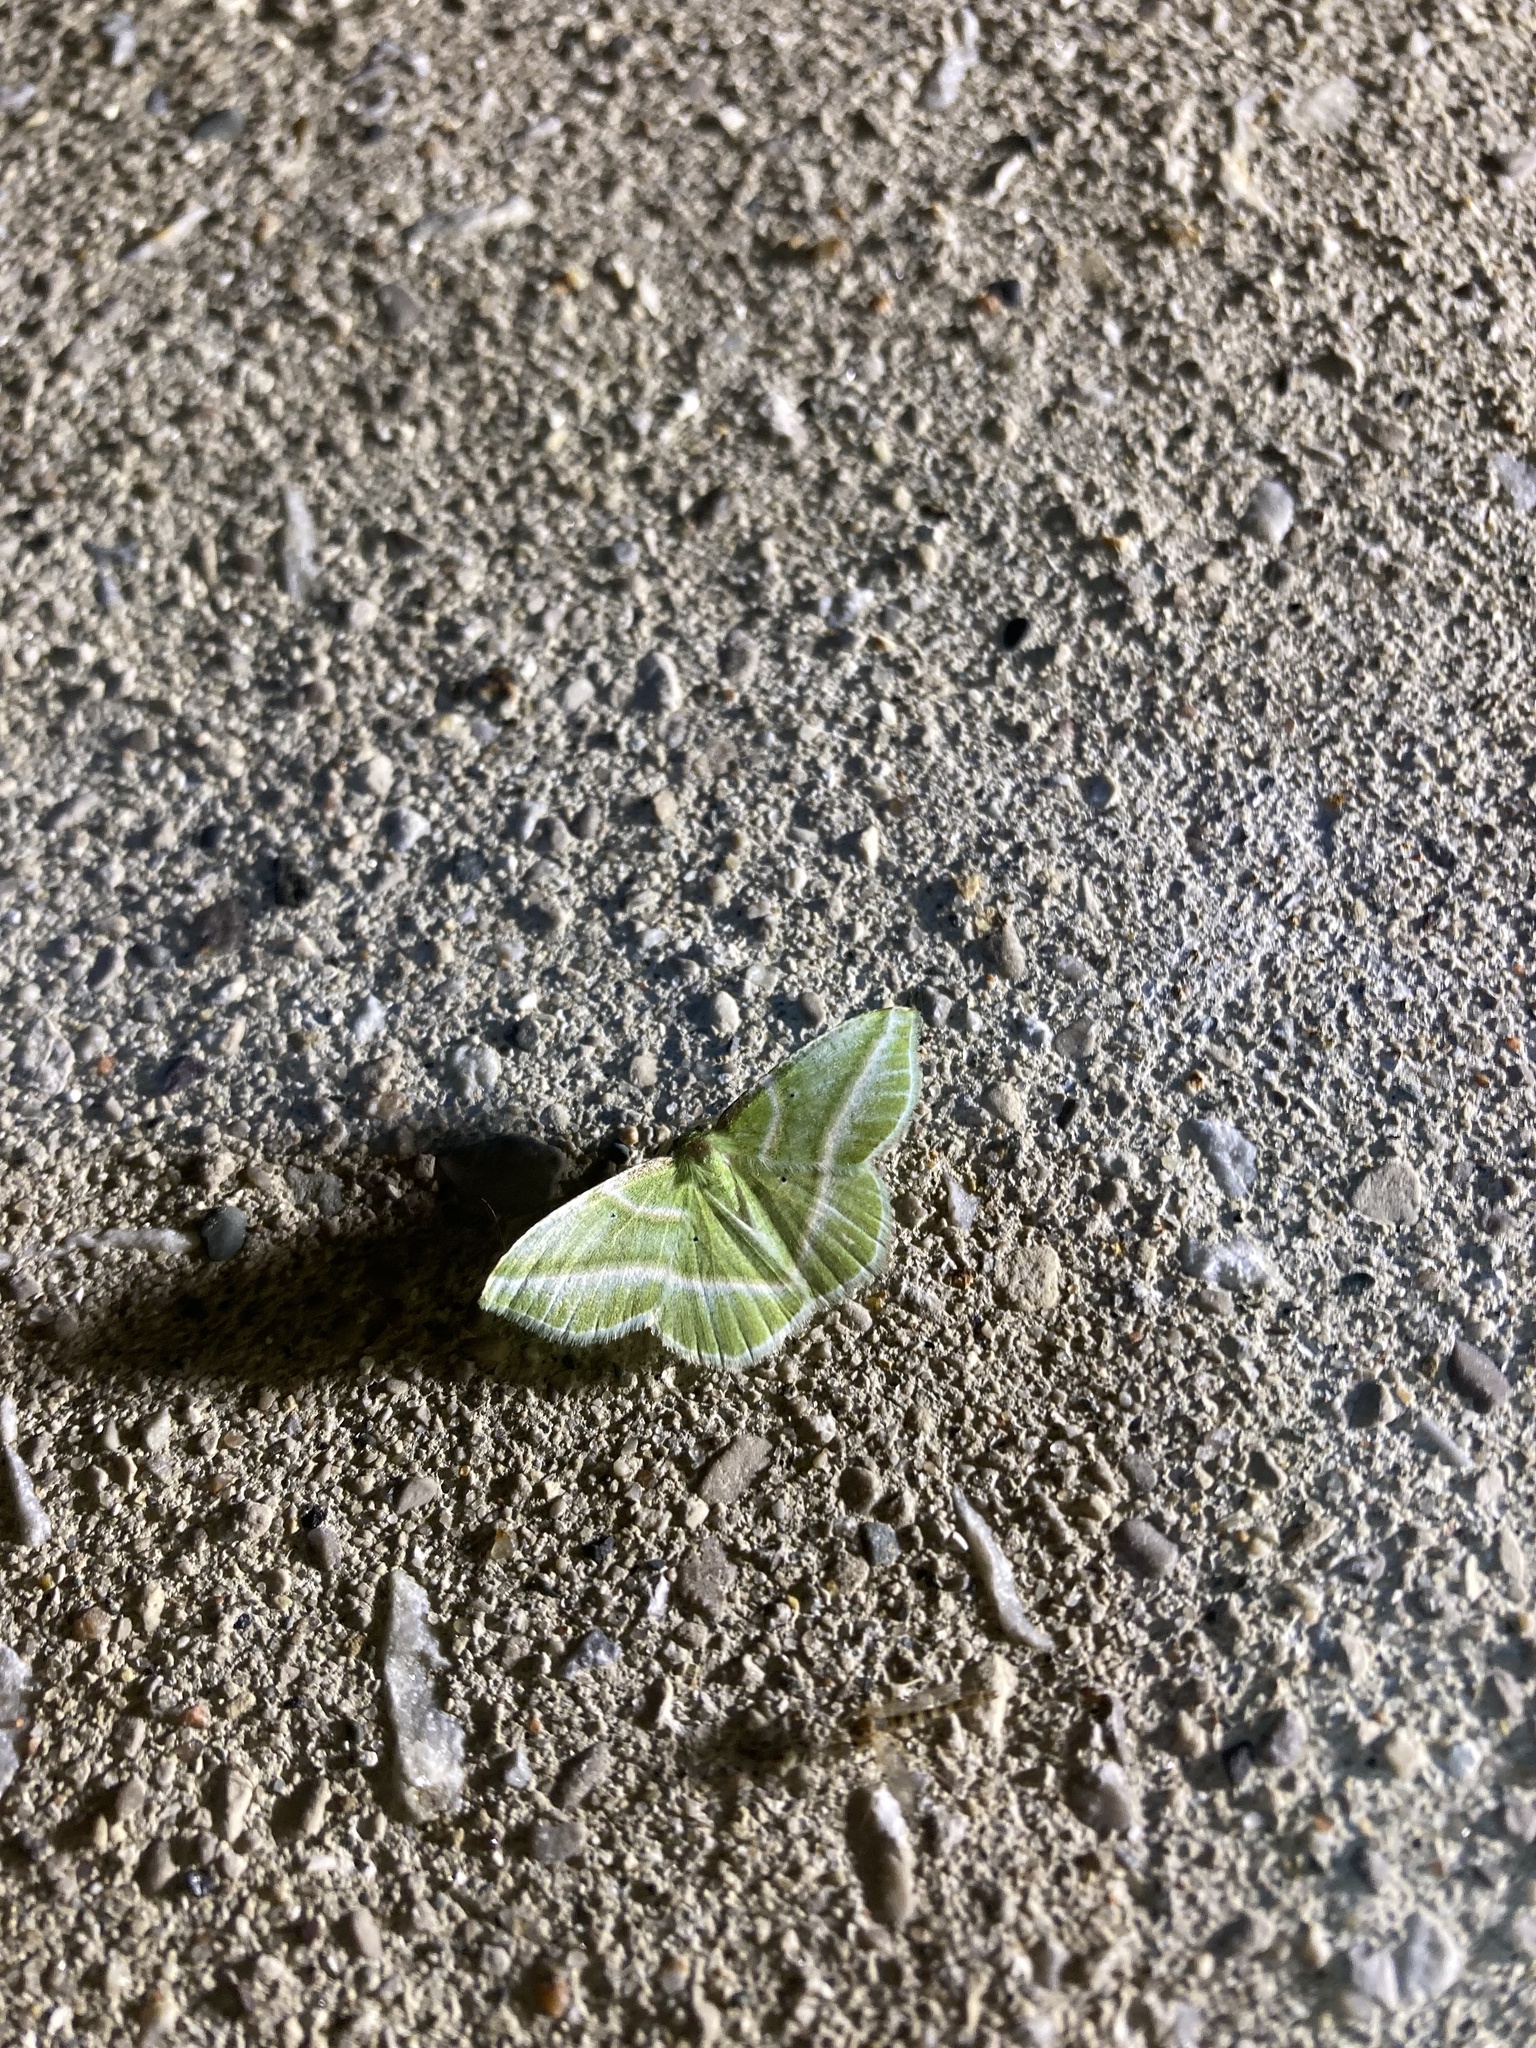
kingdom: Animalia
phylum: Arthropoda
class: Insecta
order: Lepidoptera
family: Geometridae
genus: Dichorda
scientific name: Dichorda iridaria
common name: Showy emerald
